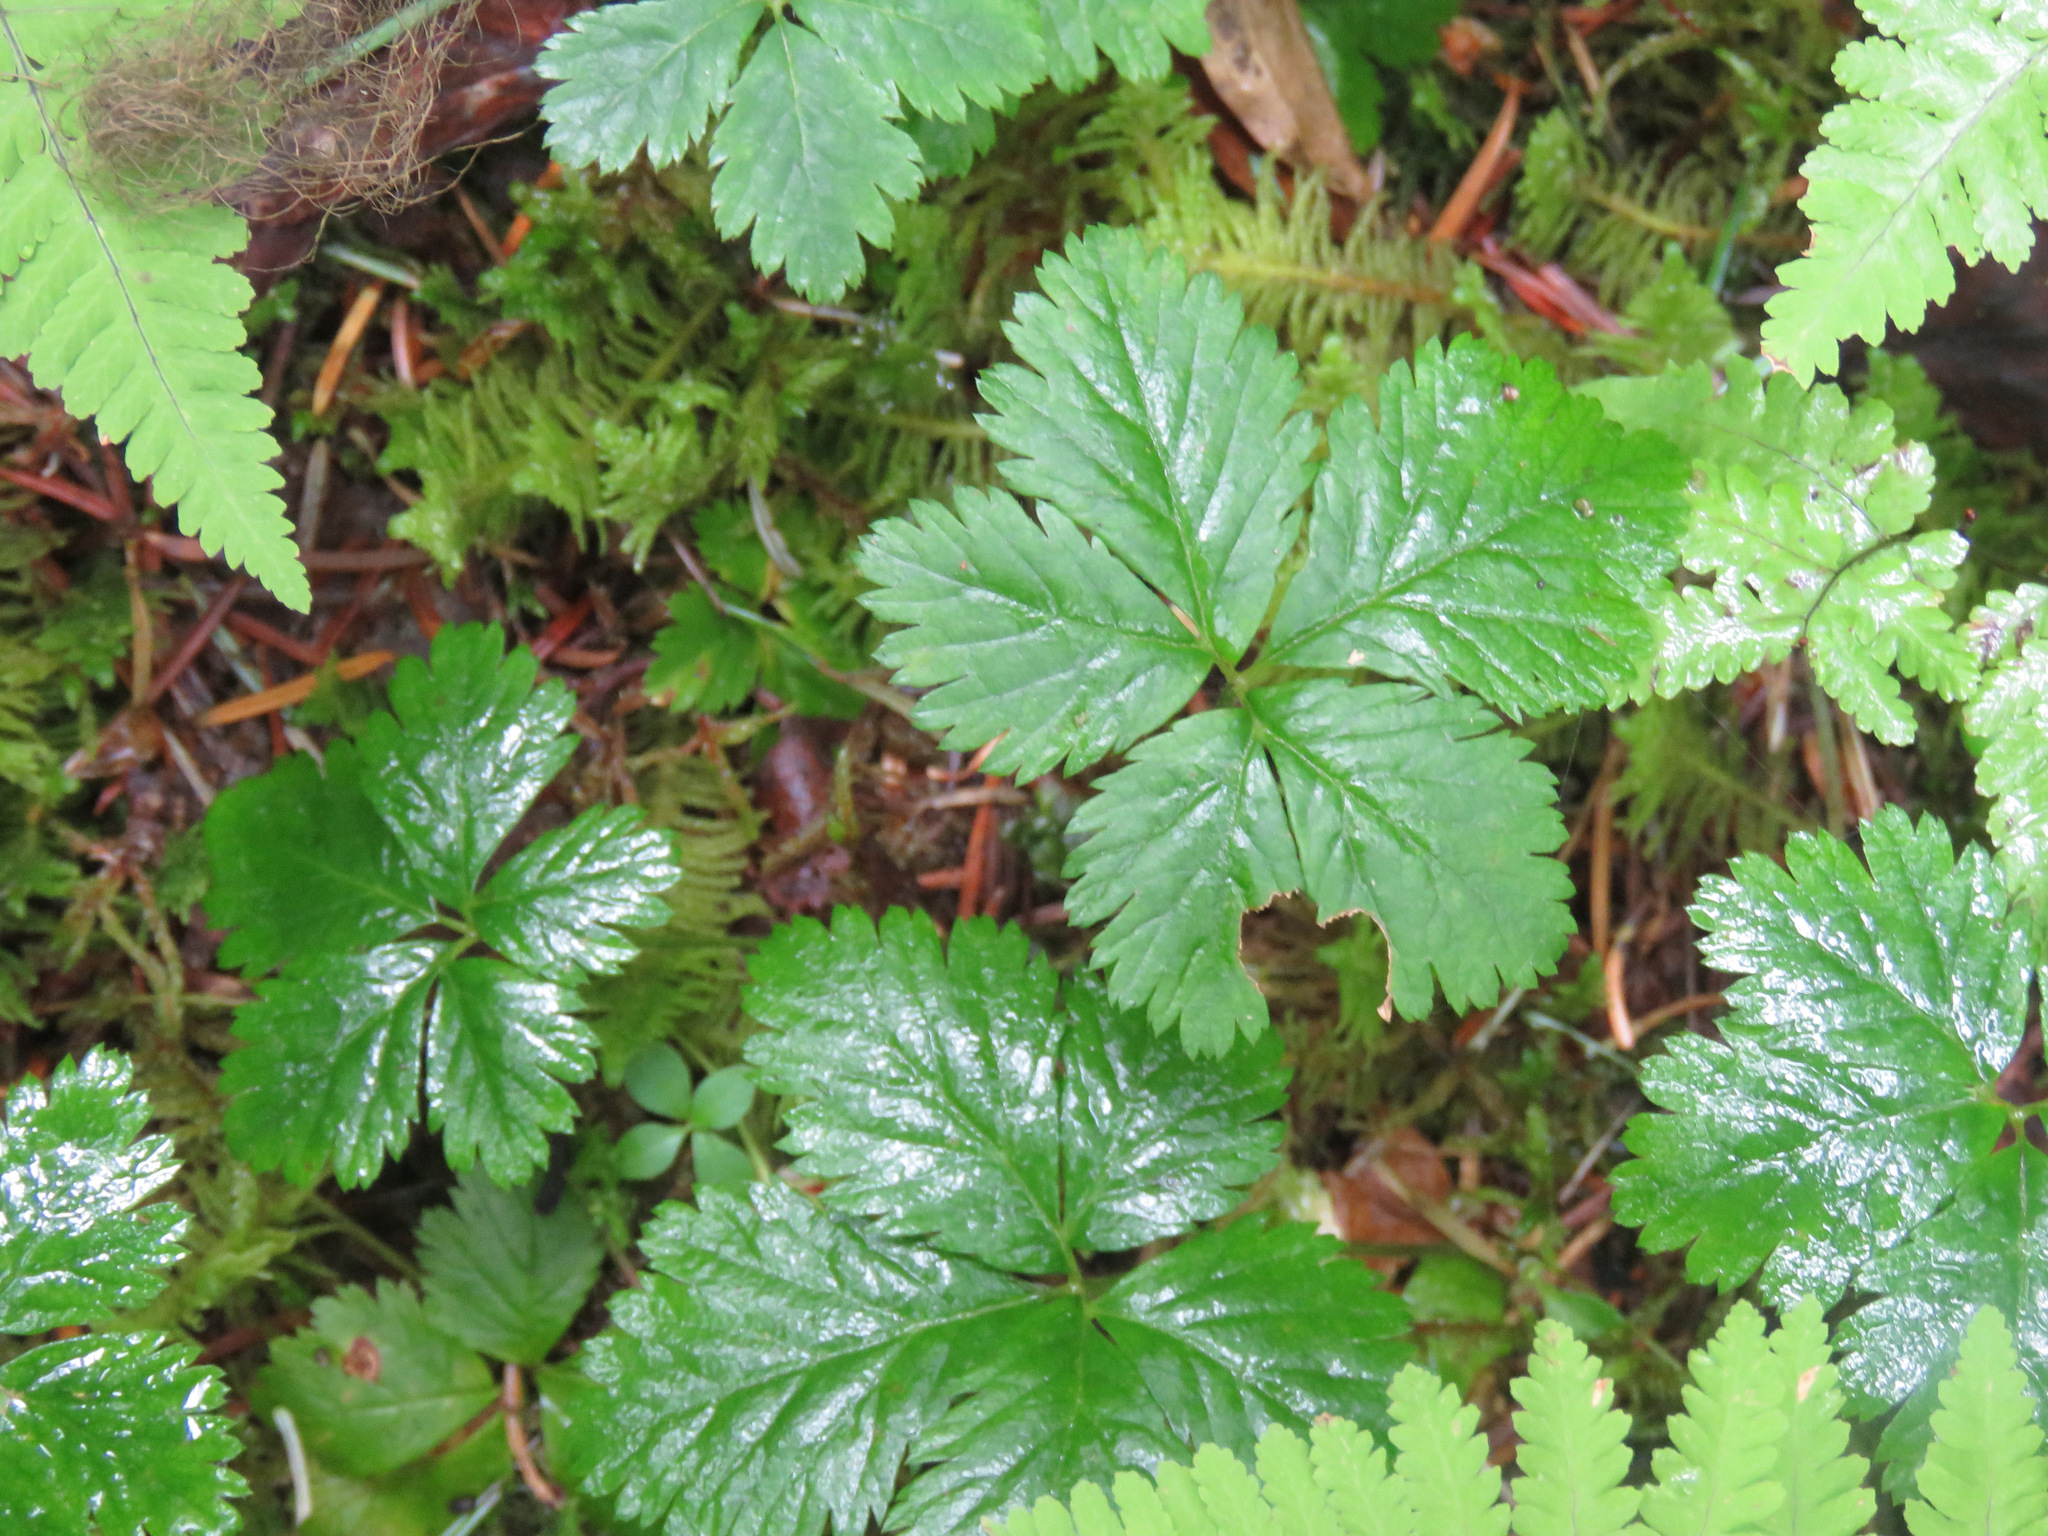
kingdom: Plantae
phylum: Tracheophyta
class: Magnoliopsida
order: Rosales
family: Rosaceae
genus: Rubus
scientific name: Rubus pedatus
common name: Creeping raspberry
